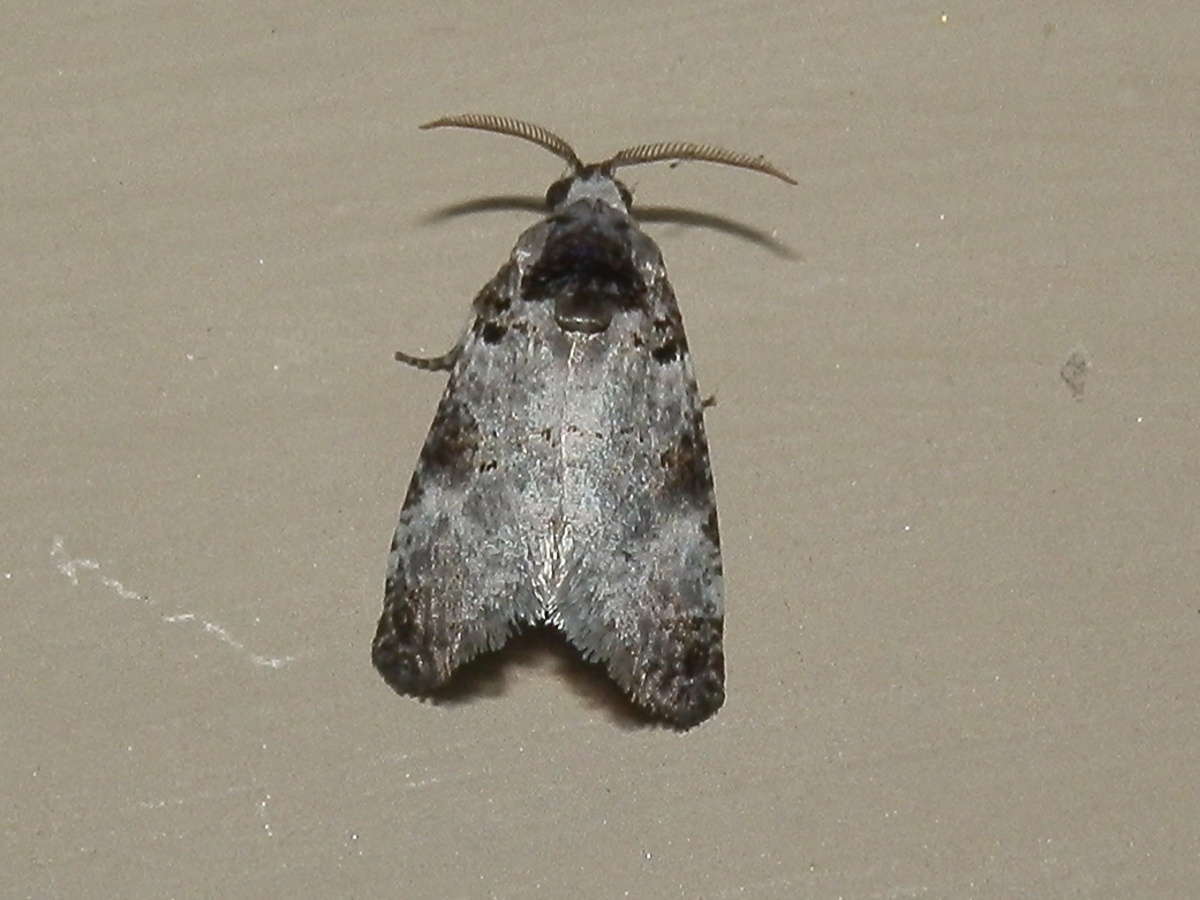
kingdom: Animalia
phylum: Arthropoda
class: Insecta
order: Lepidoptera
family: Cossidae
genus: Idioses
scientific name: Idioses littleri
